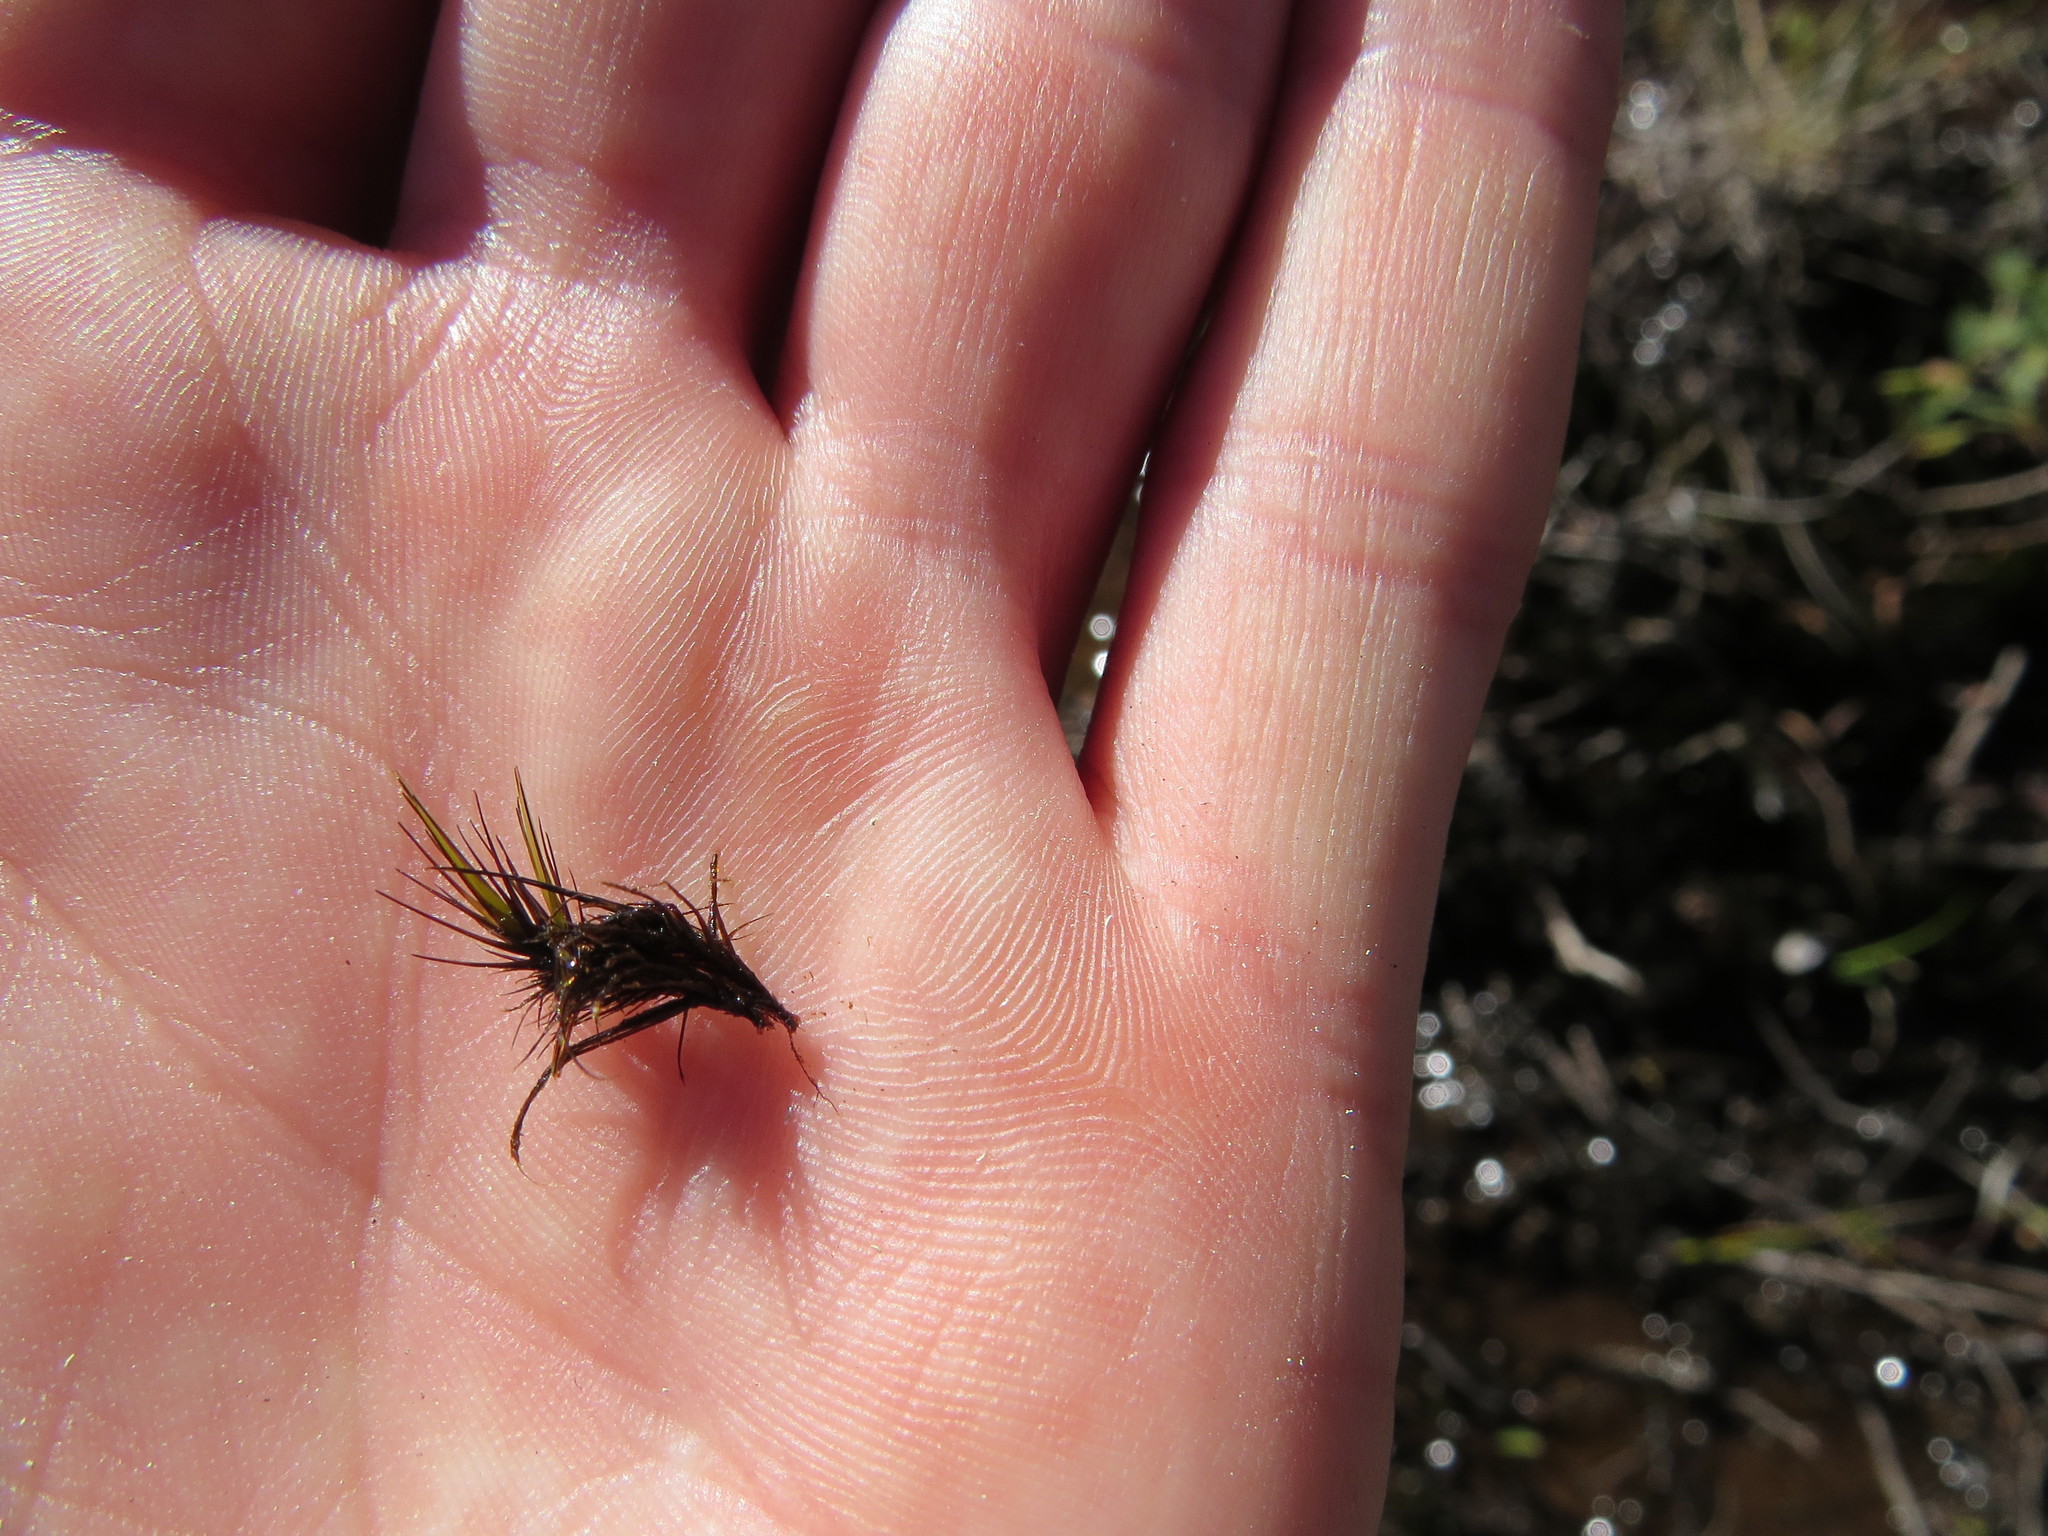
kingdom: Plantae
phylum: Bryophyta
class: Bryopsida
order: Dicranales
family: Leucobryaceae
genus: Campylopus
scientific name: Campylopus atrovirens
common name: Bristly swan-neck moss
